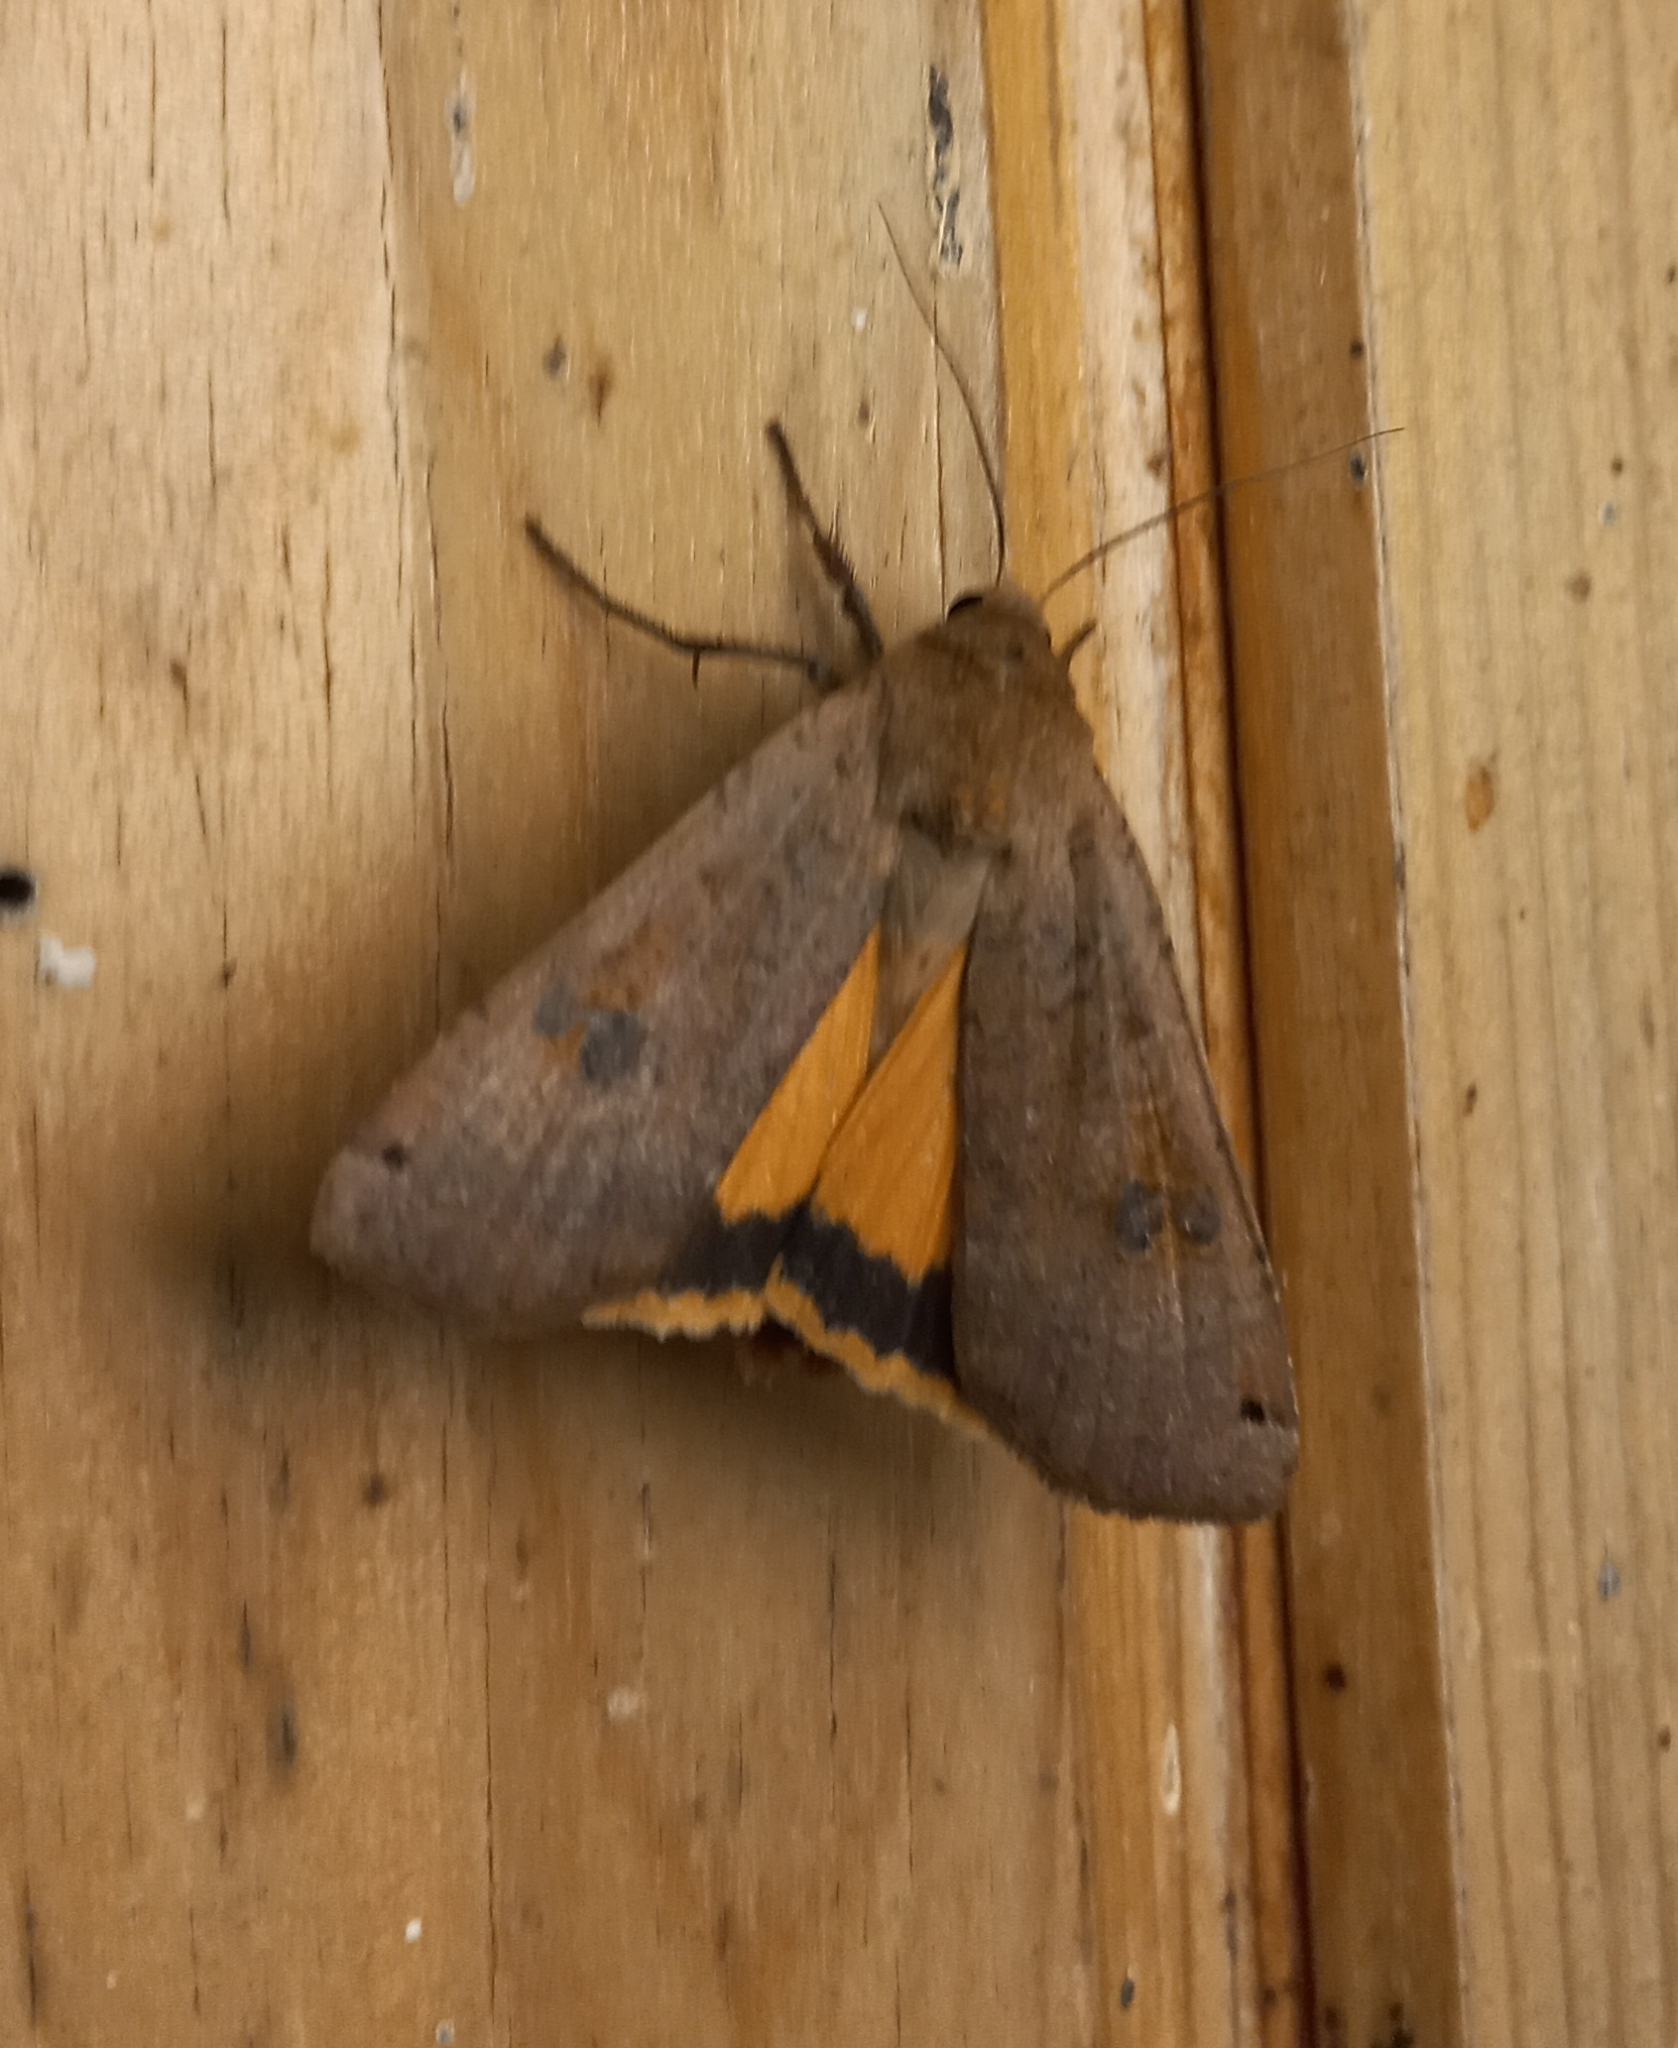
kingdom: Animalia
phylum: Arthropoda
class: Insecta
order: Lepidoptera
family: Noctuidae
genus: Noctua
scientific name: Noctua pronuba
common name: Large yellow underwing
